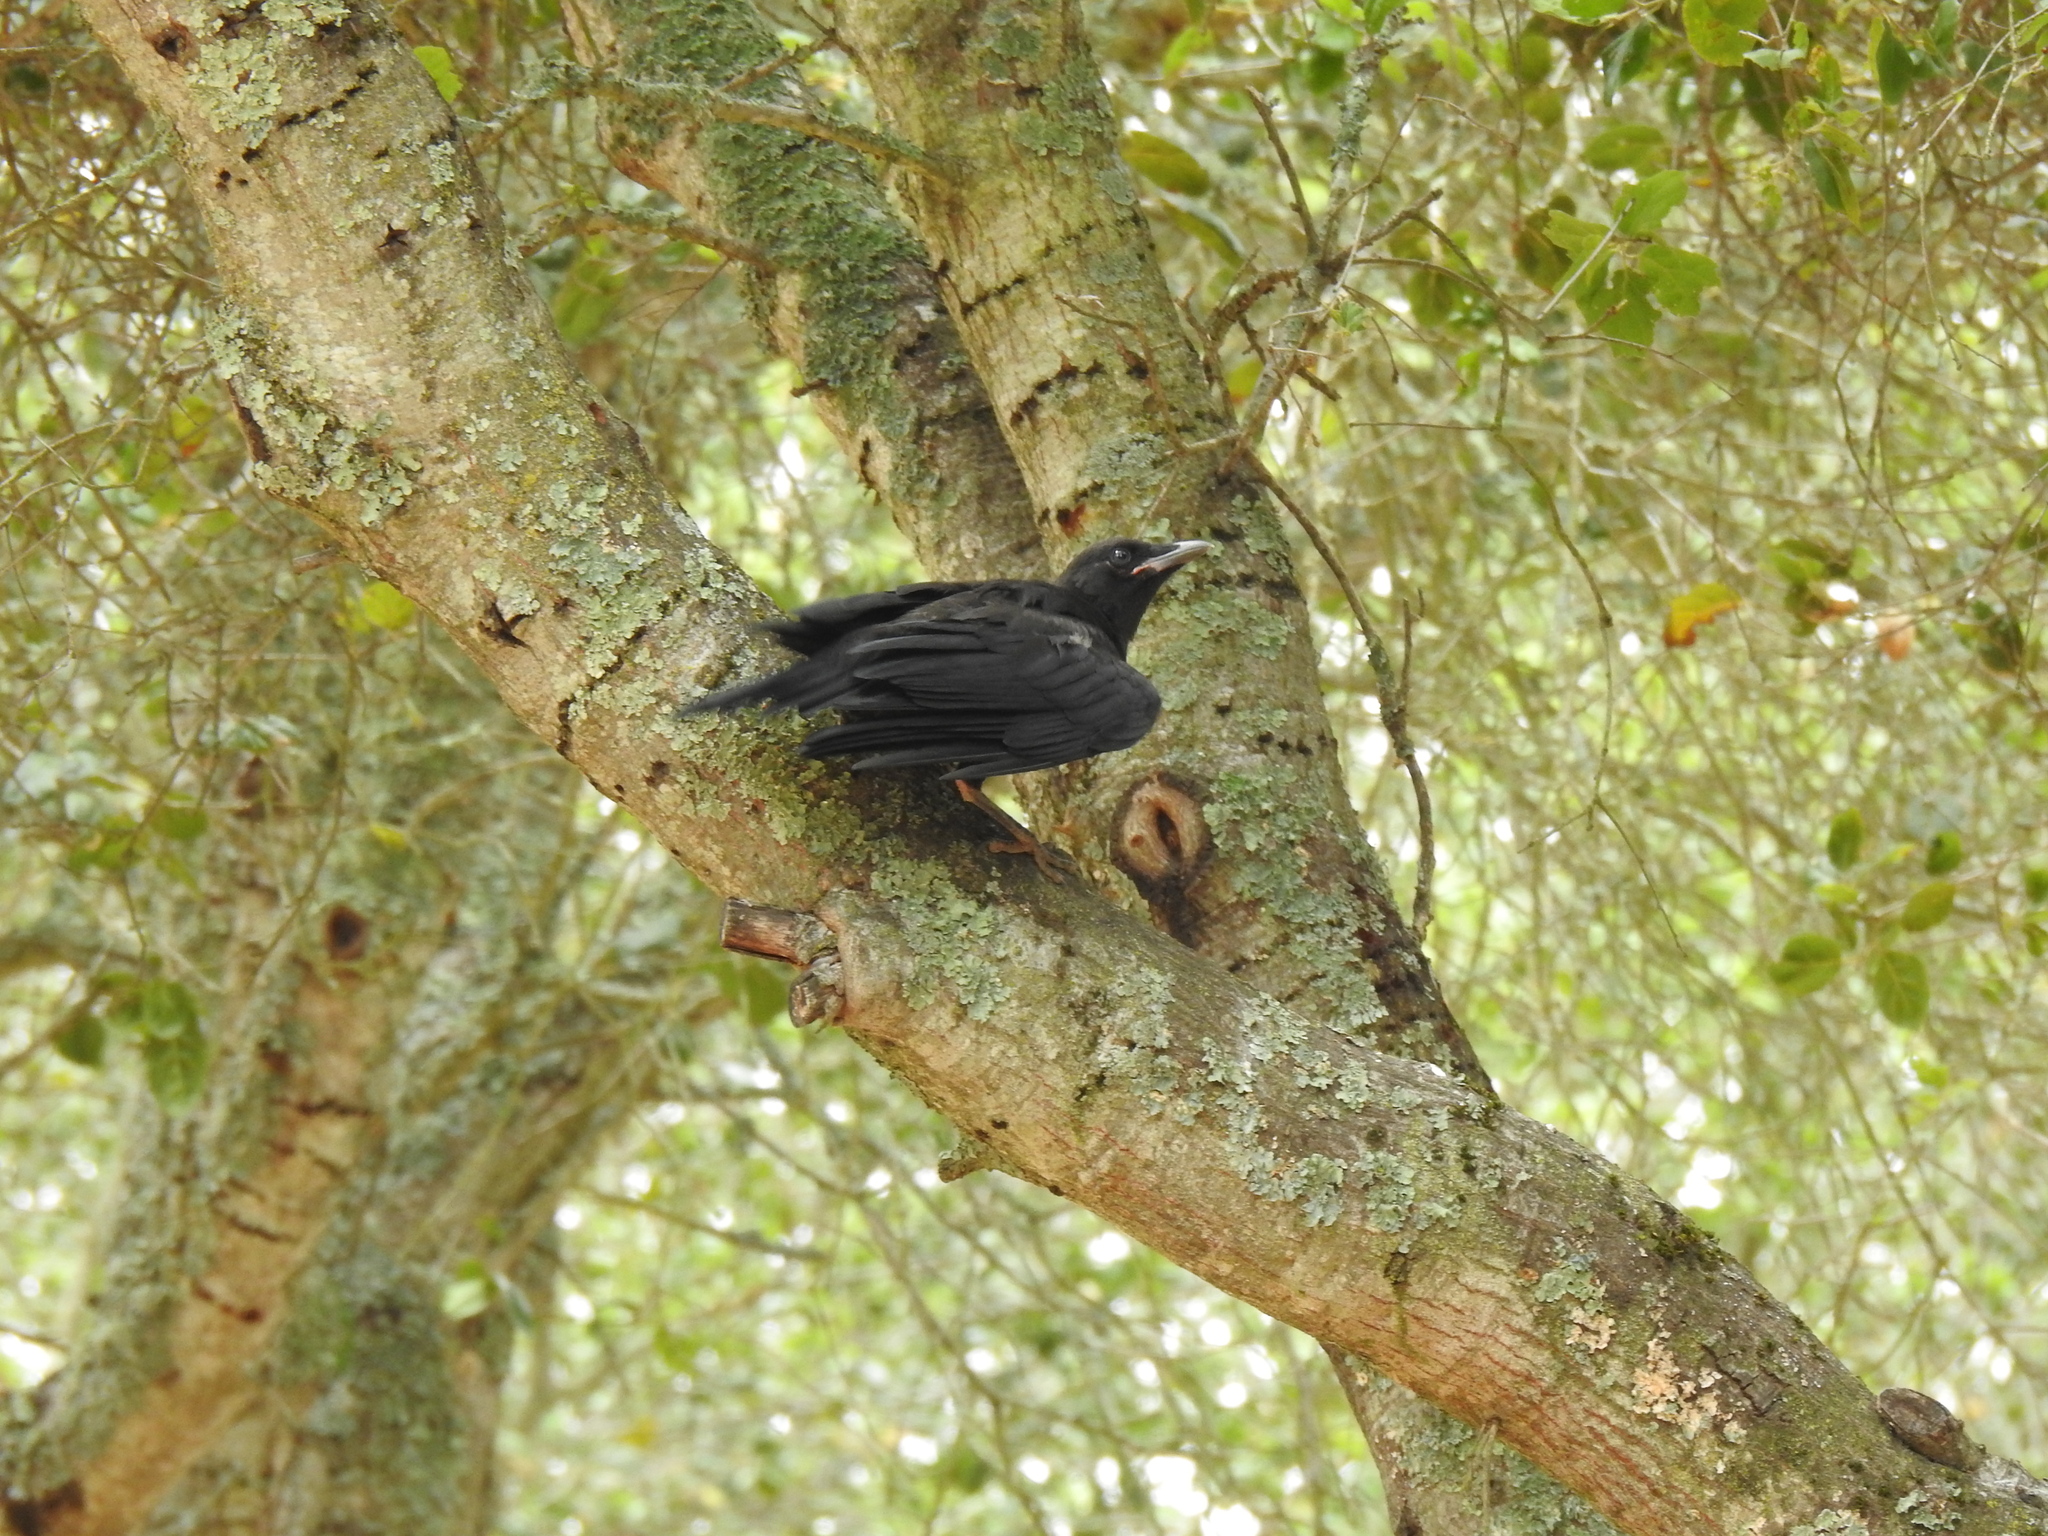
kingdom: Animalia
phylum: Chordata
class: Aves
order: Passeriformes
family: Corvidae
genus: Corvus
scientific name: Corvus brachyrhynchos
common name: American crow
